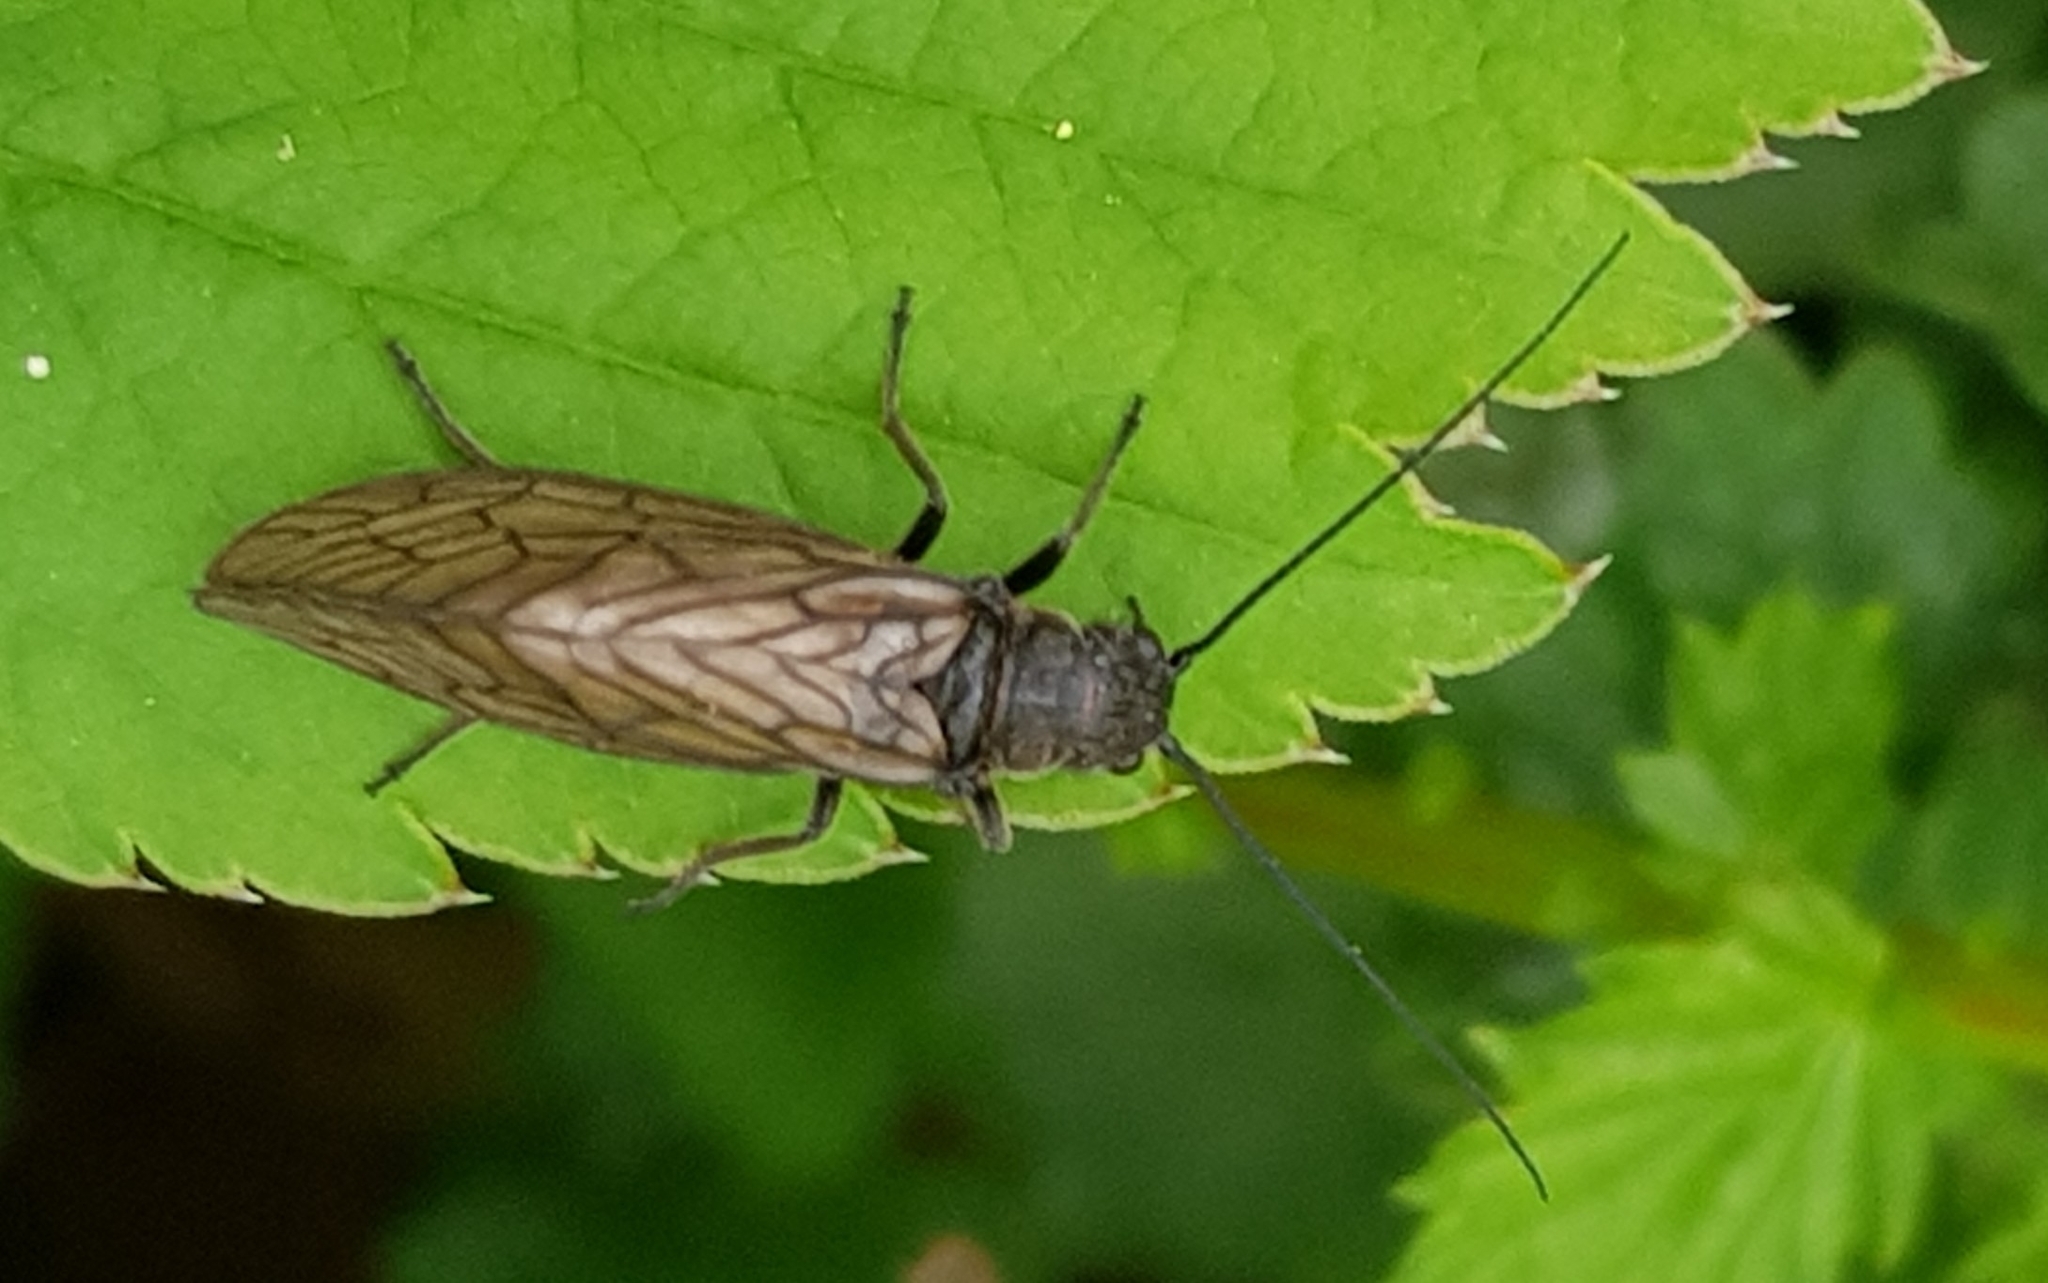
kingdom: Animalia
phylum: Arthropoda
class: Insecta
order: Megaloptera
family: Sialidae
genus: Sialis
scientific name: Sialis
